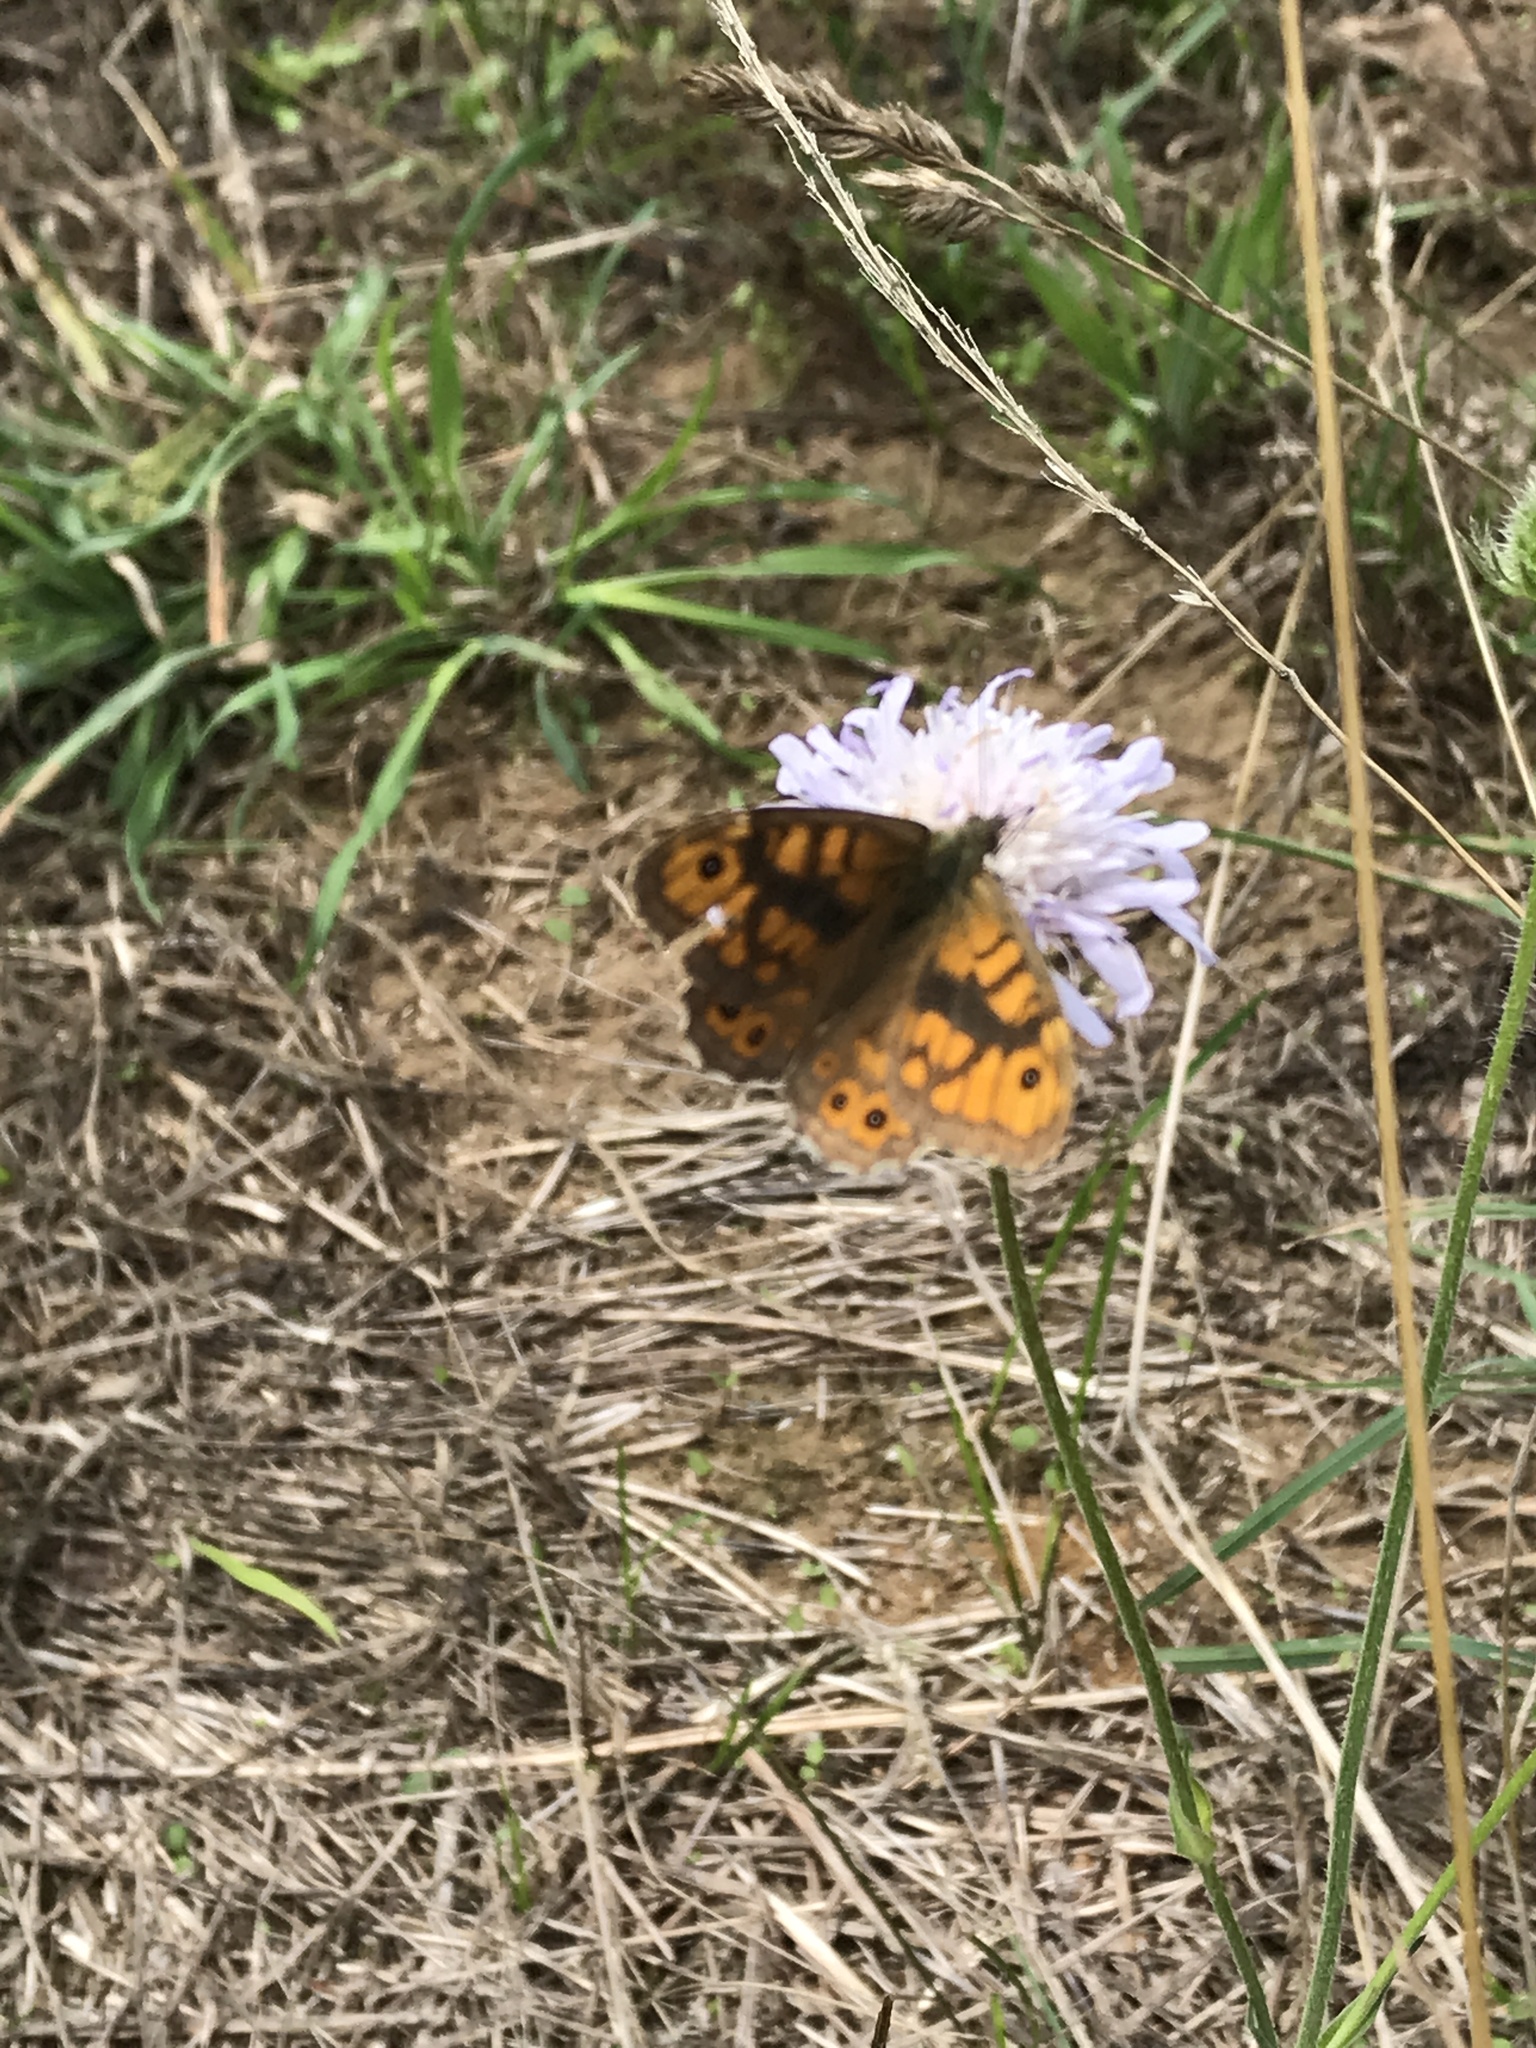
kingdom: Animalia
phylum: Arthropoda
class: Insecta
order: Lepidoptera
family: Nymphalidae
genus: Pararge
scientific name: Pararge Lasiommata megera
